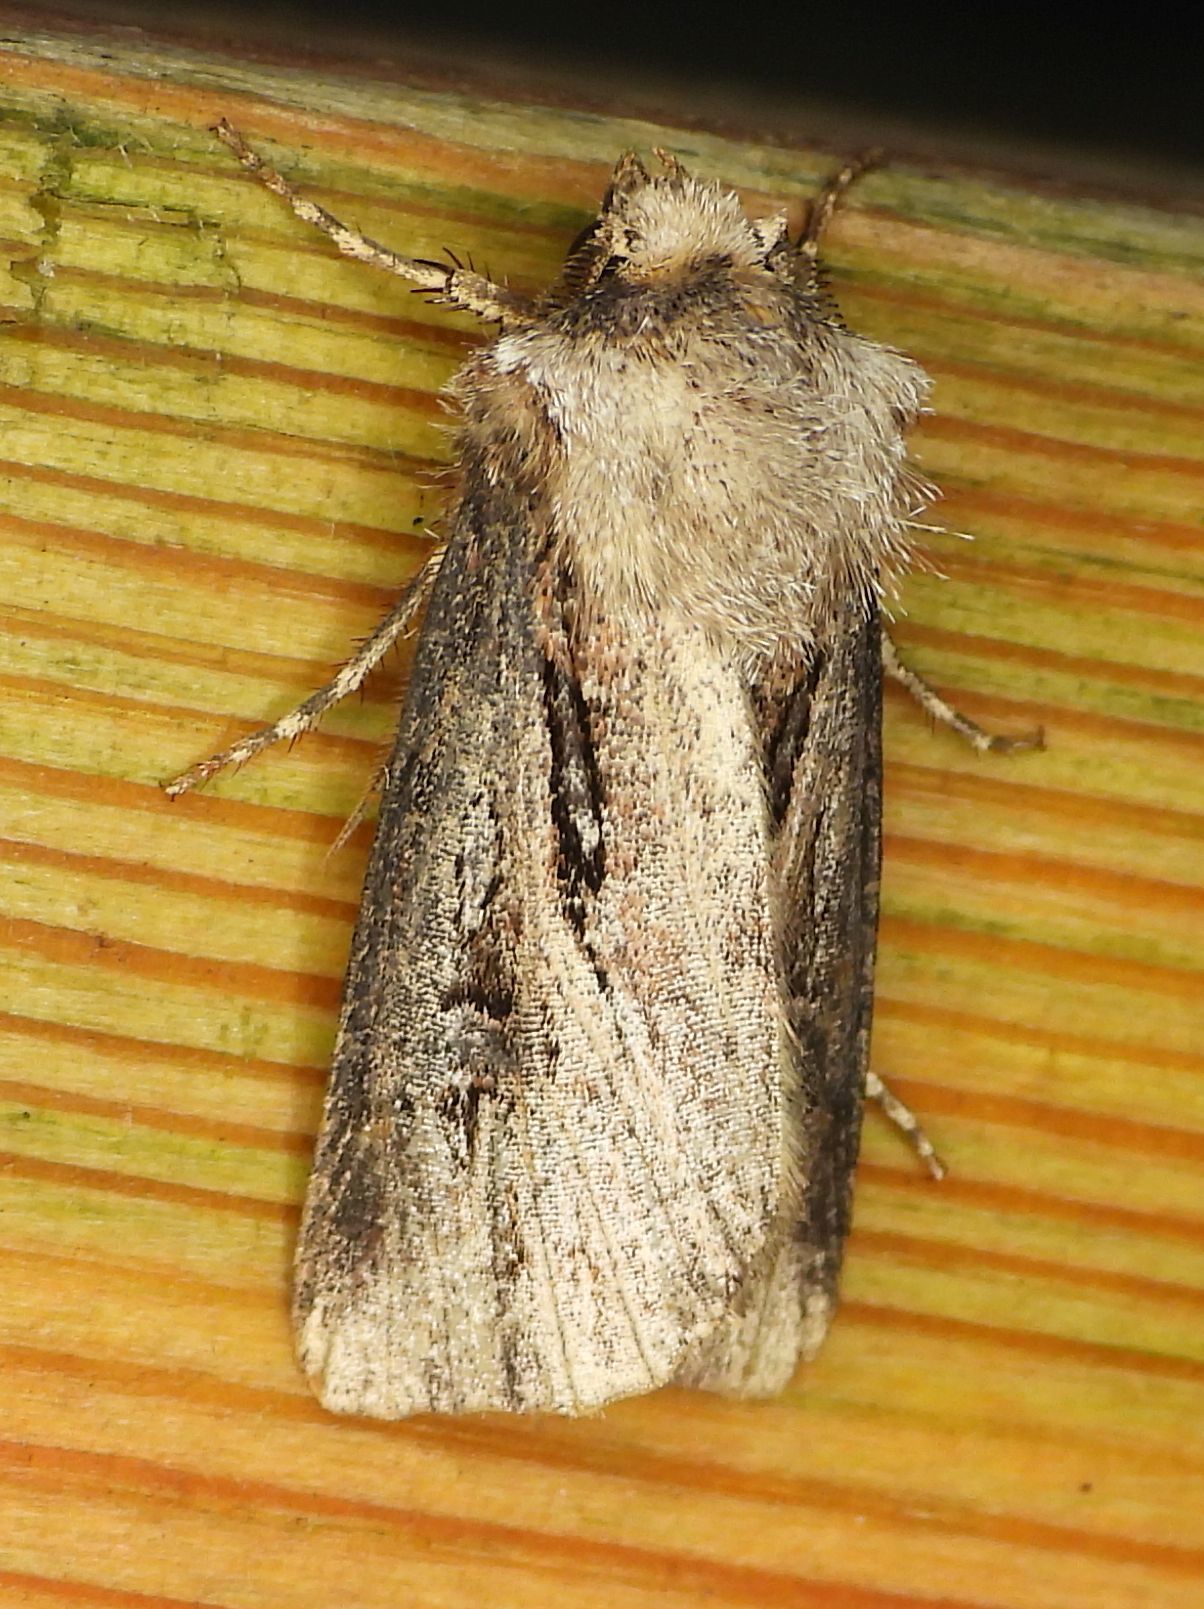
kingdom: Animalia
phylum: Arthropoda
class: Insecta
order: Lepidoptera
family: Noctuidae
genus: Agrotis
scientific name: Agrotis venerabilis
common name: Venerable dart
